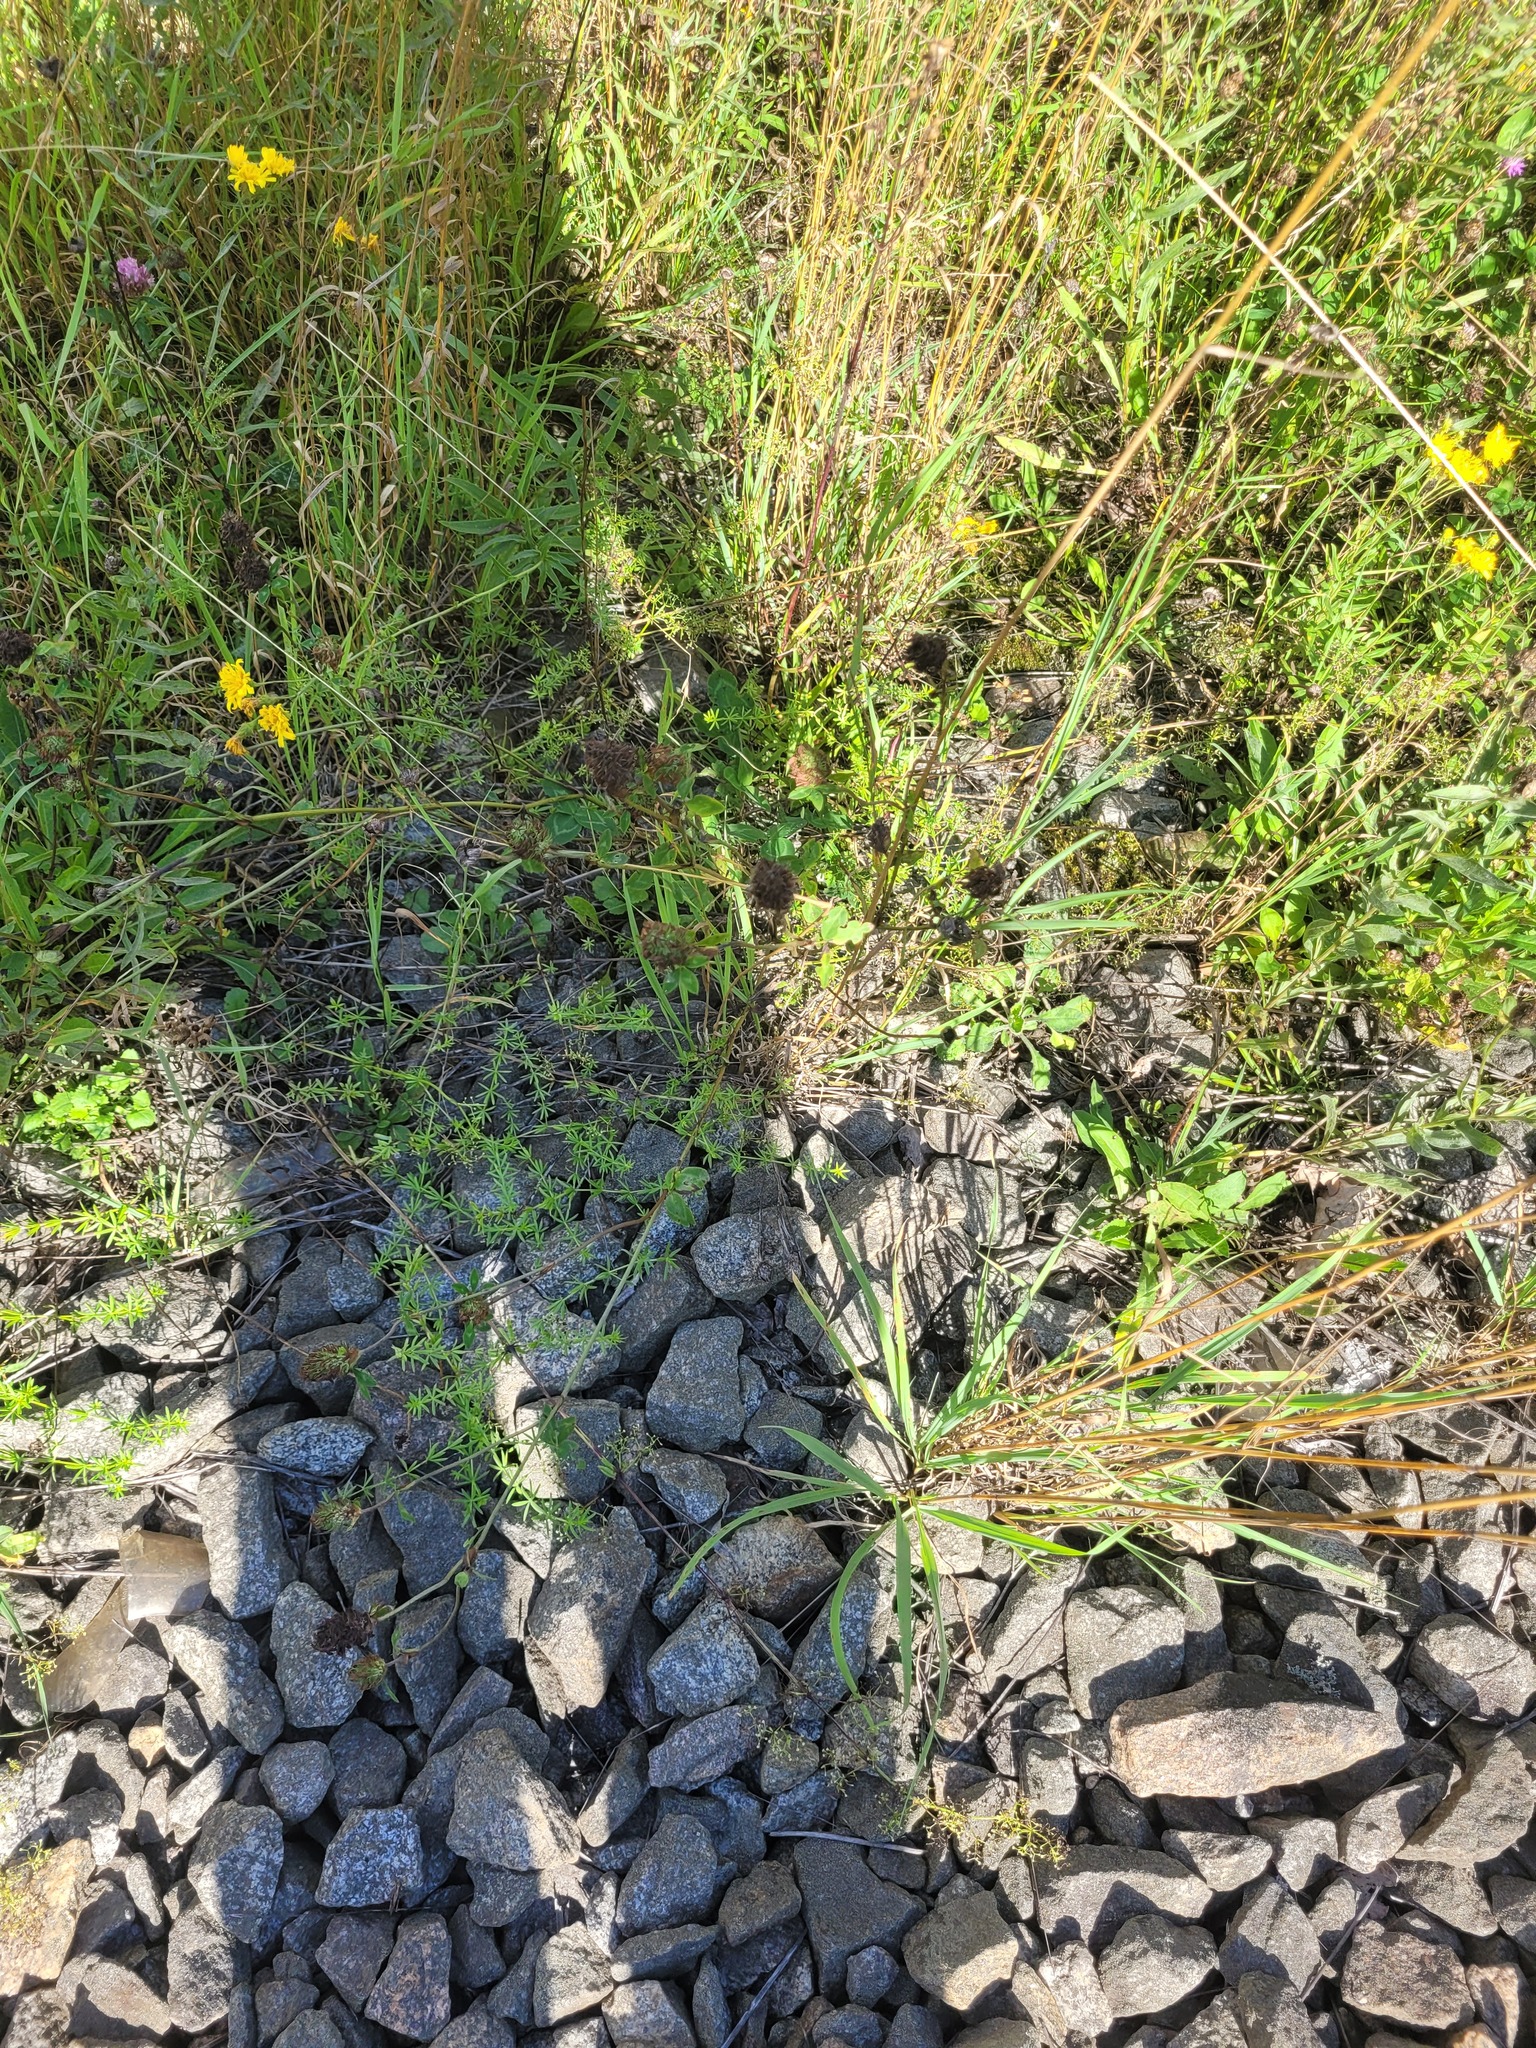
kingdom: Plantae
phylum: Tracheophyta
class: Magnoliopsida
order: Fabales
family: Fabaceae
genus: Trifolium
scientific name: Trifolium pratense
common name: Red clover
